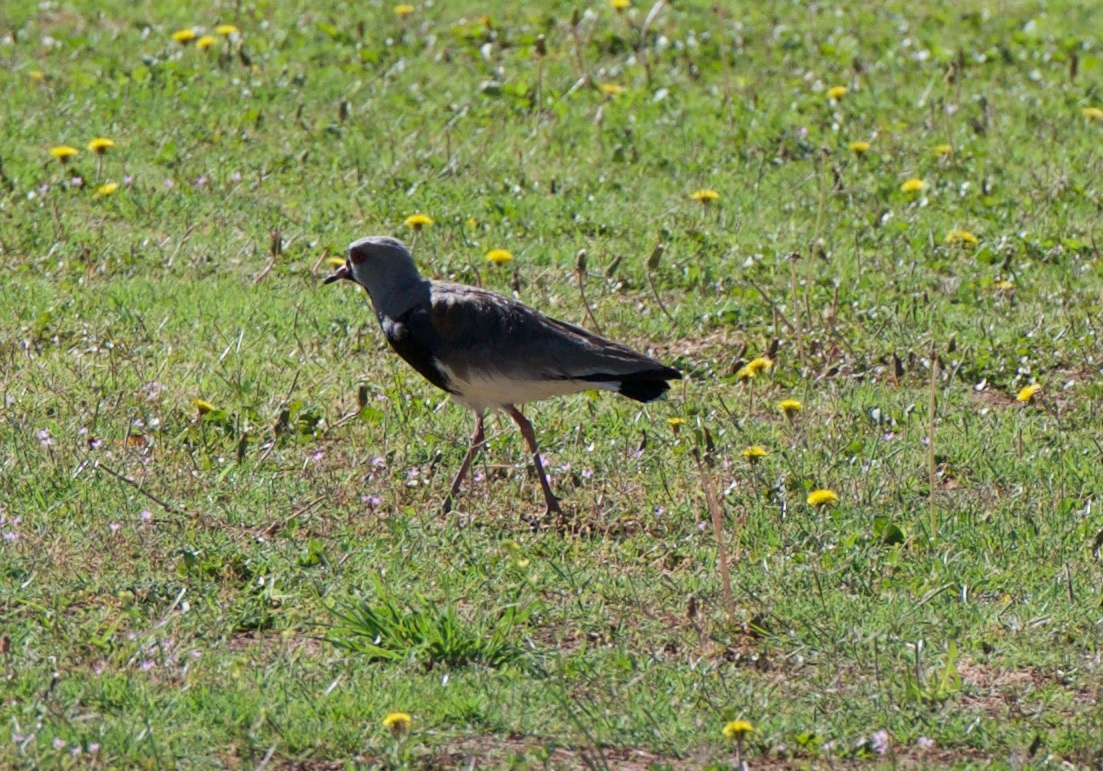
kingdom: Animalia
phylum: Chordata
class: Aves
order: Charadriiformes
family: Charadriidae
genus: Vanellus
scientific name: Vanellus chilensis
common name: Southern lapwing
